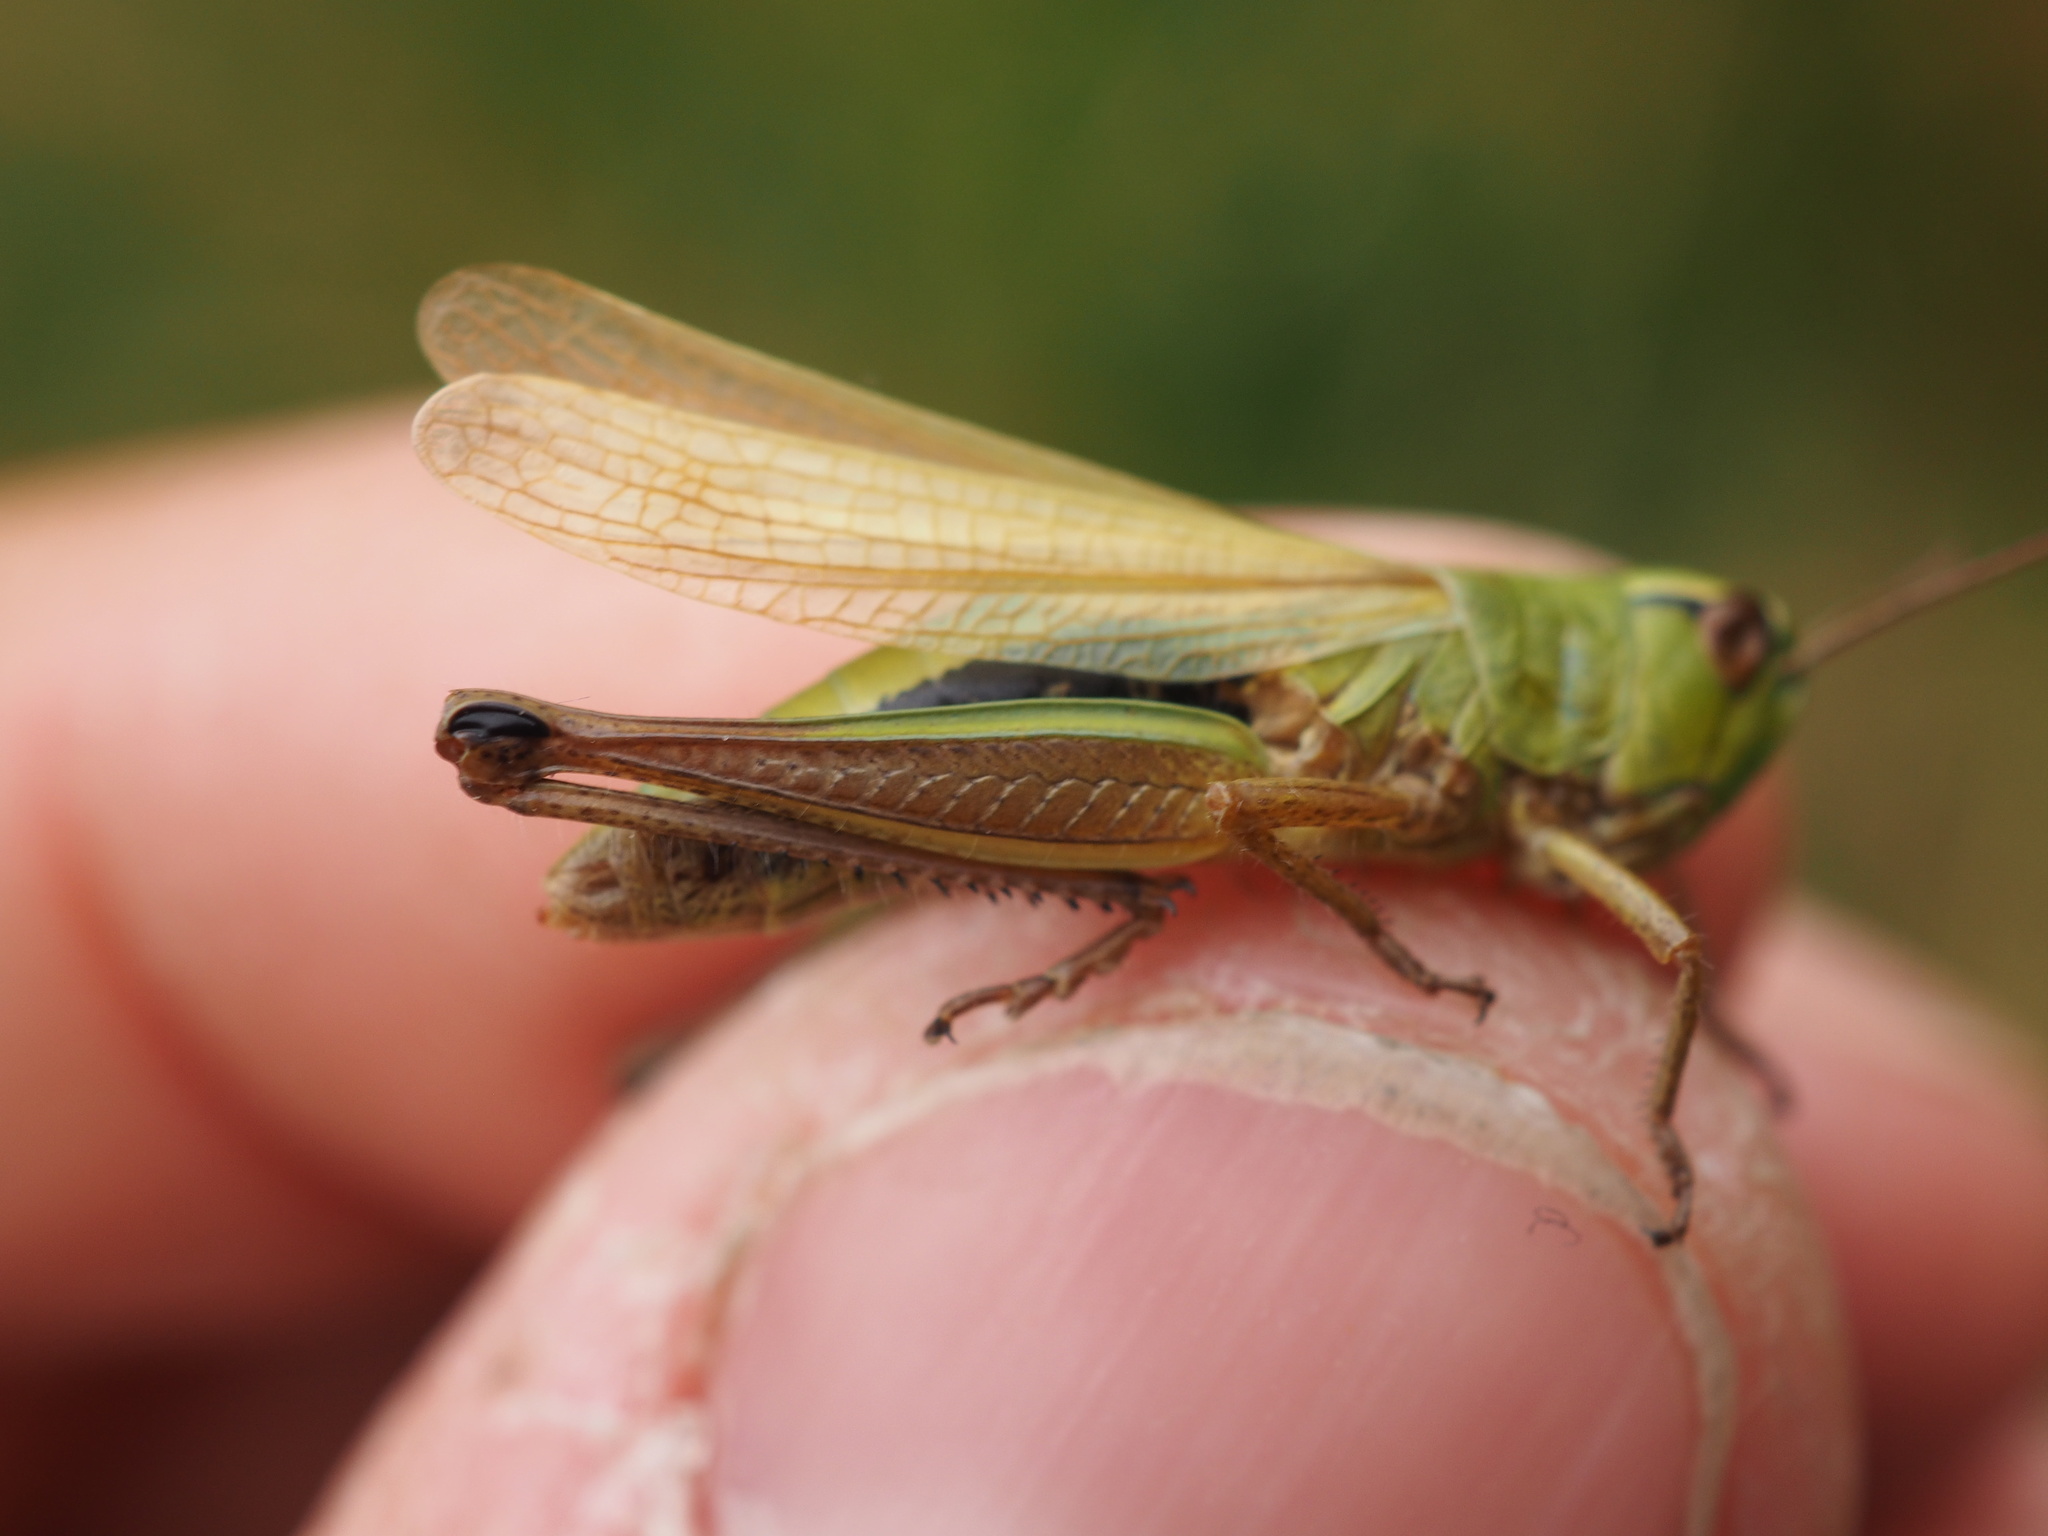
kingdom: Animalia
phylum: Arthropoda
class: Insecta
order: Orthoptera
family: Acrididae
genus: Pseudochorthippus
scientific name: Pseudochorthippus parallelus
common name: Meadow grasshopper
